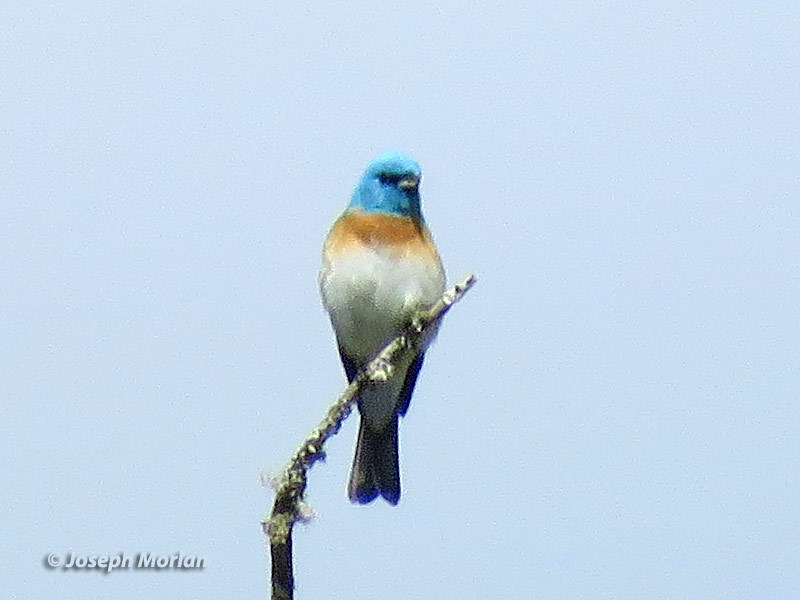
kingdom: Animalia
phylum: Chordata
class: Aves
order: Passeriformes
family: Cardinalidae
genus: Passerina
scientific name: Passerina amoena
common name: Lazuli bunting
